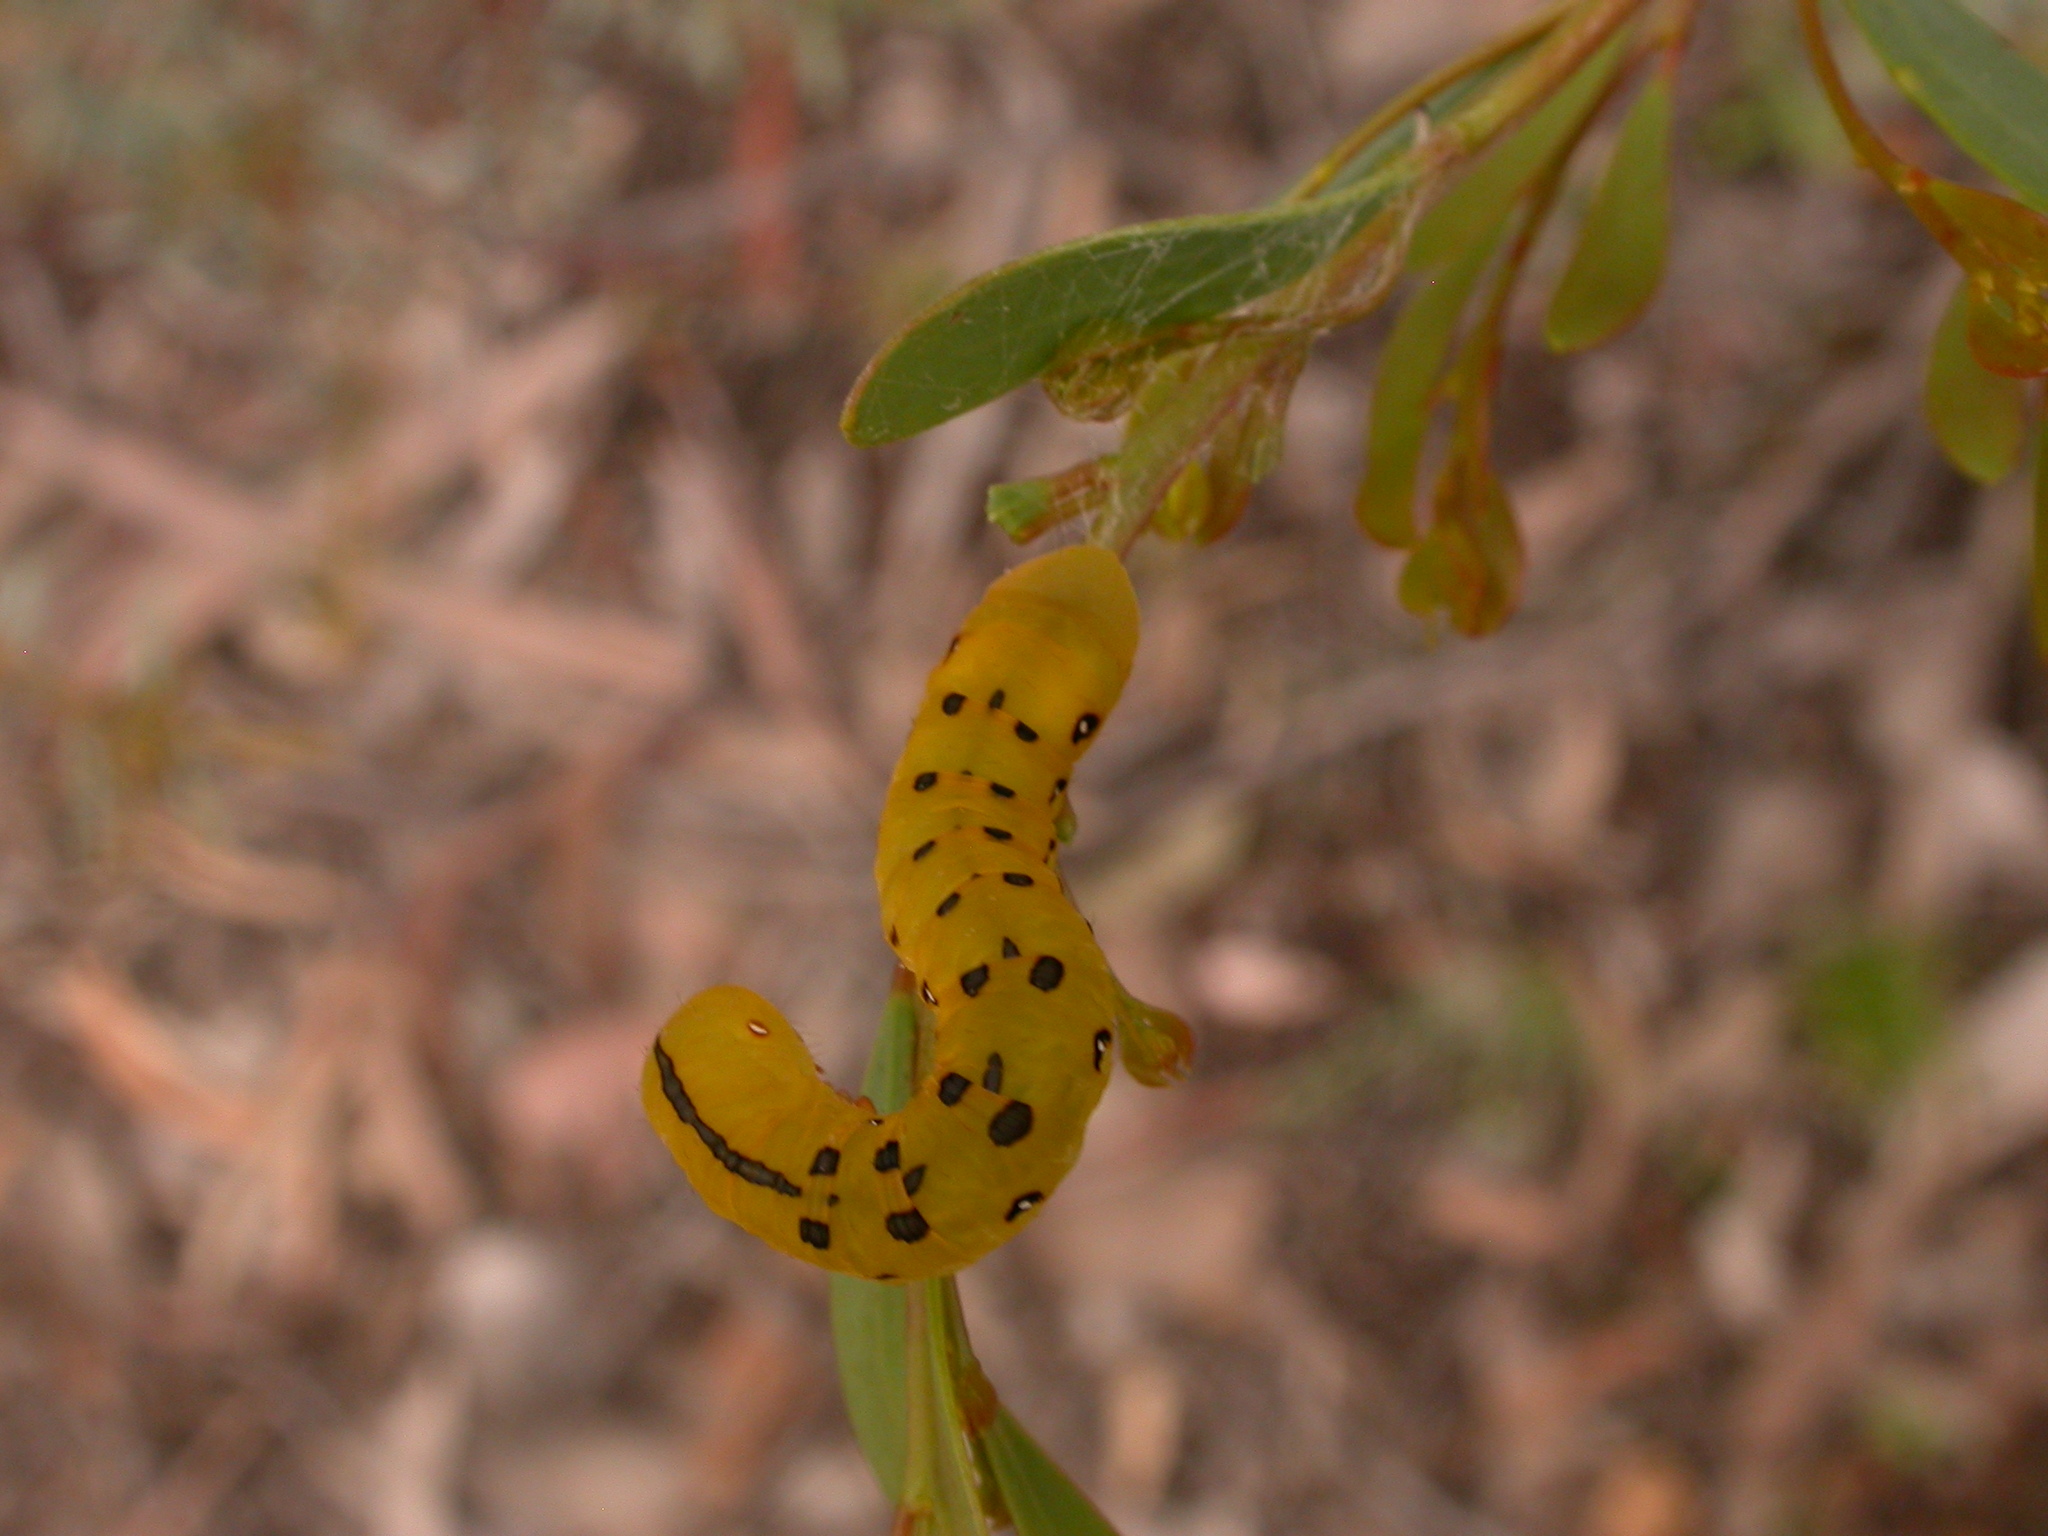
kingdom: Animalia
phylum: Arthropoda
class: Insecta
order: Lepidoptera
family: Geometridae
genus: Capusa
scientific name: Capusa cuculloides
